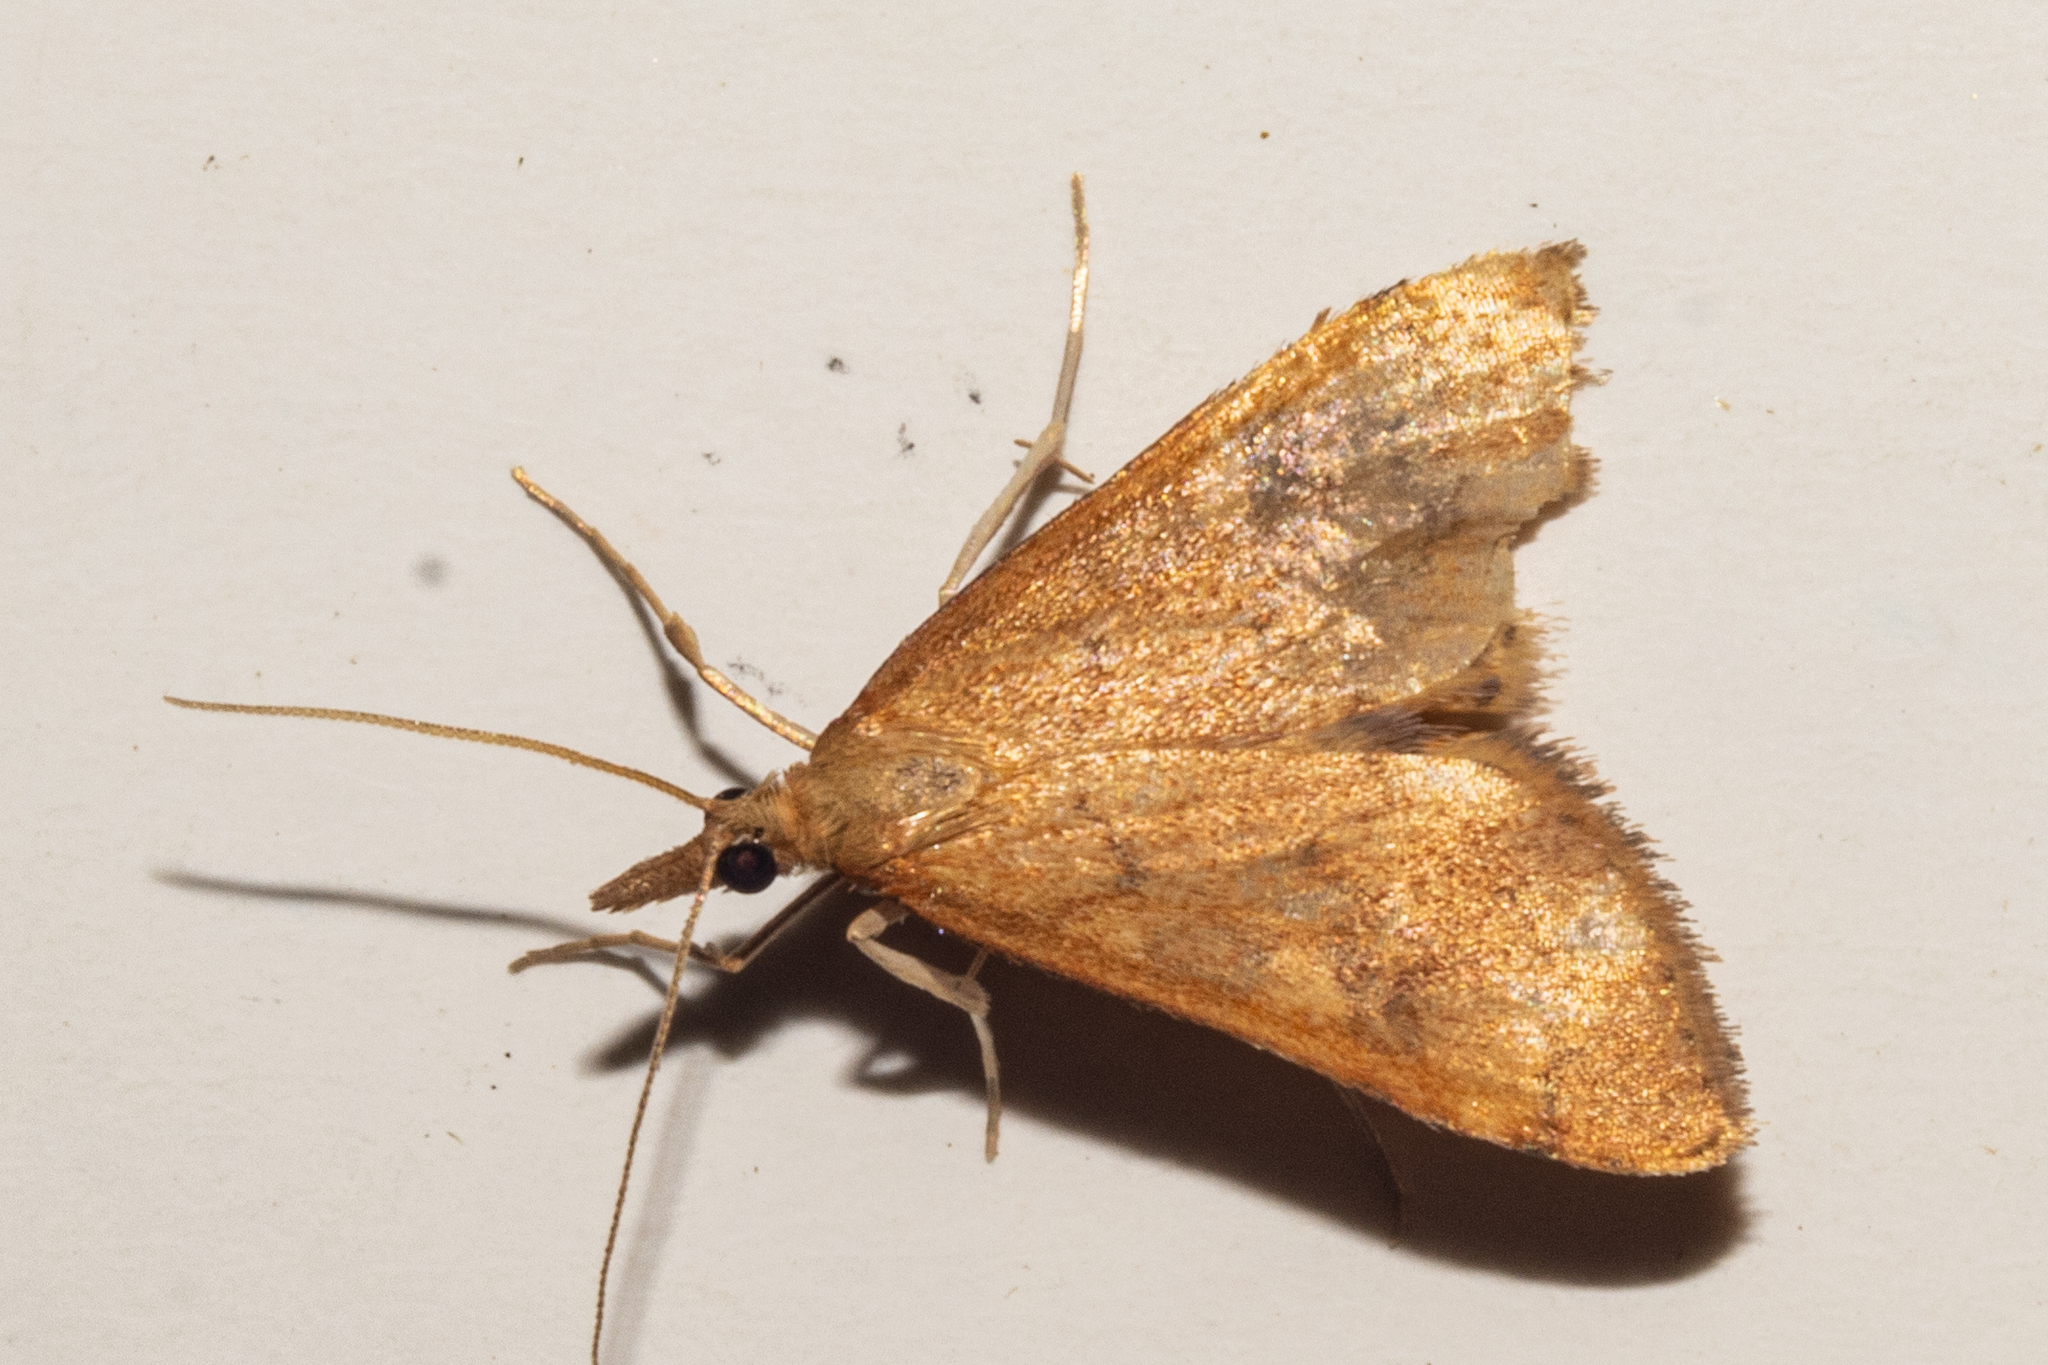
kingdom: Animalia
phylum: Arthropoda
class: Insecta
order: Lepidoptera
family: Crambidae
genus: Udea
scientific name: Udea Mnesictena flavidalis
